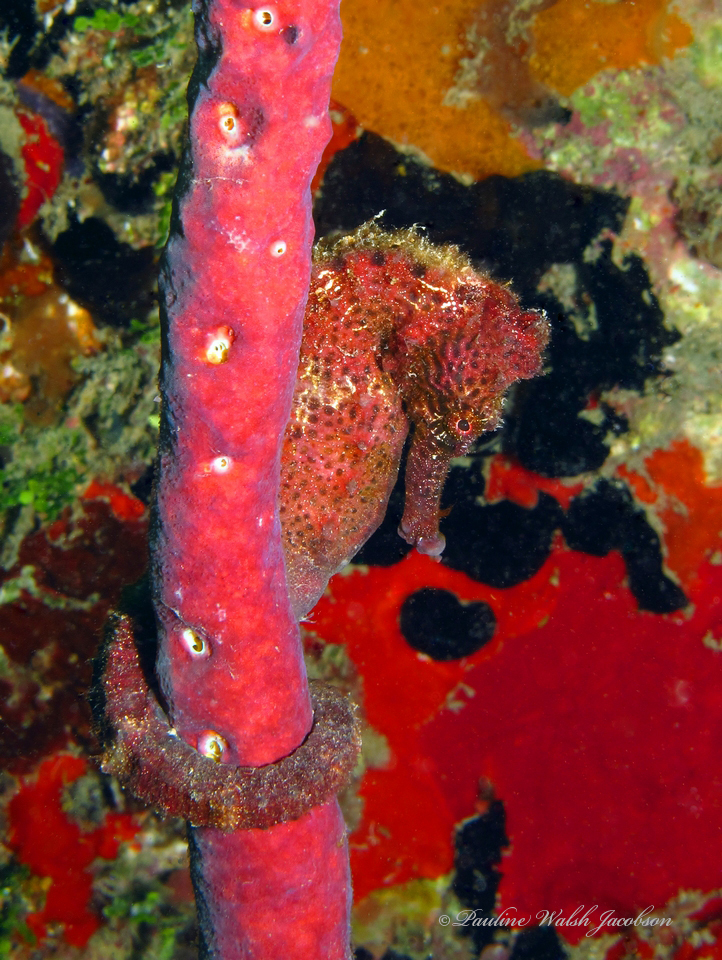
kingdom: Animalia
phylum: Chordata
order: Syngnathiformes
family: Syngnathidae
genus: Hippocampus
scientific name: Hippocampus reidi
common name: Slender seahorse
